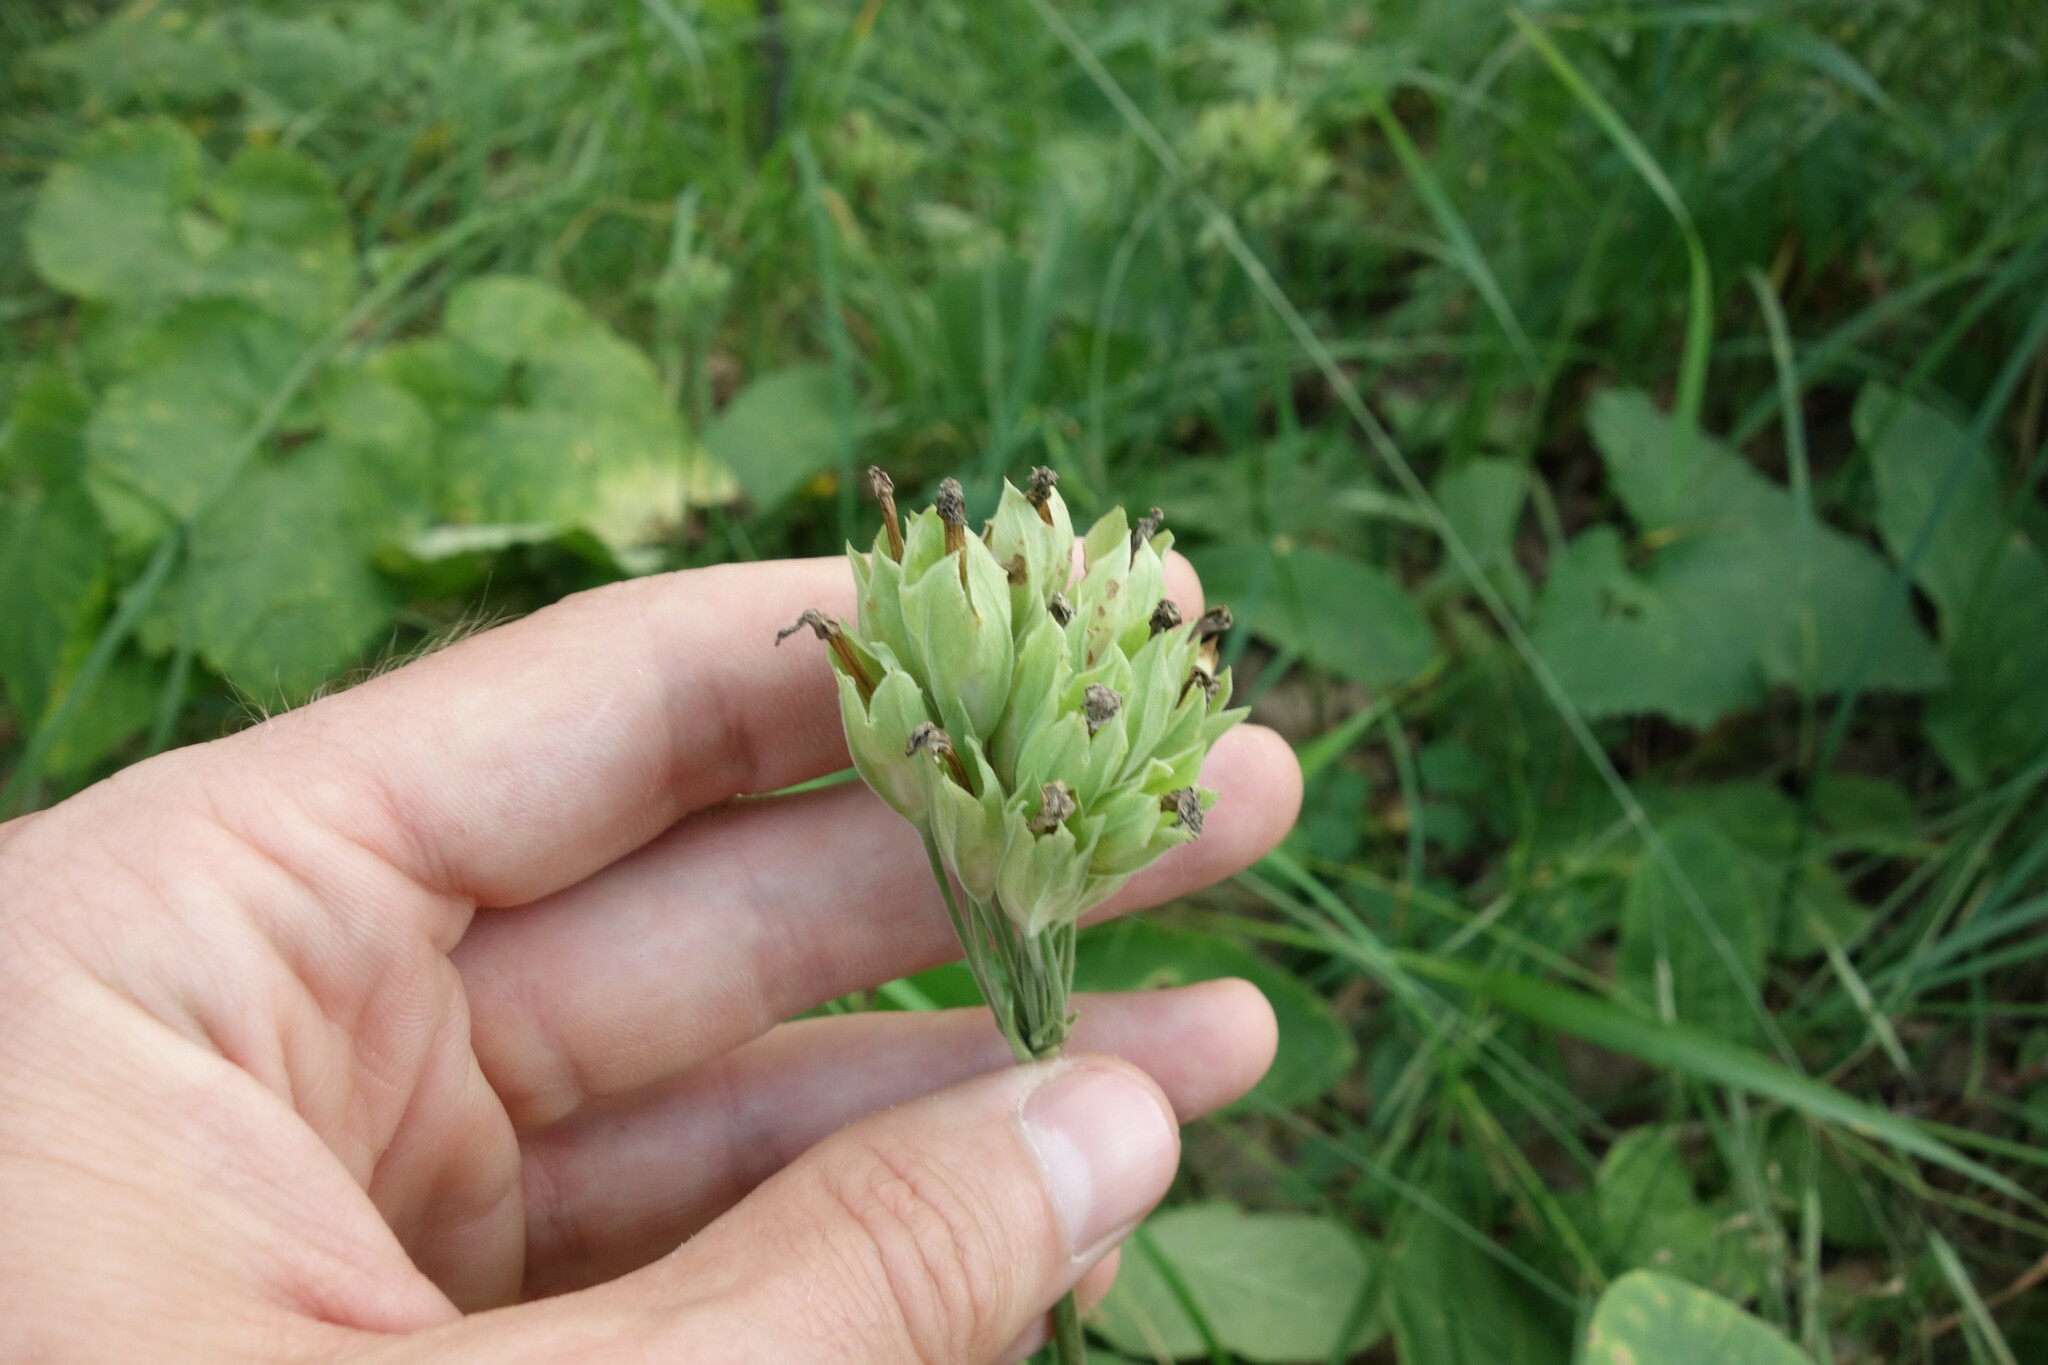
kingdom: Plantae
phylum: Tracheophyta
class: Magnoliopsida
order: Ericales
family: Primulaceae
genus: Primula
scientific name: Primula veris
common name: Cowslip
